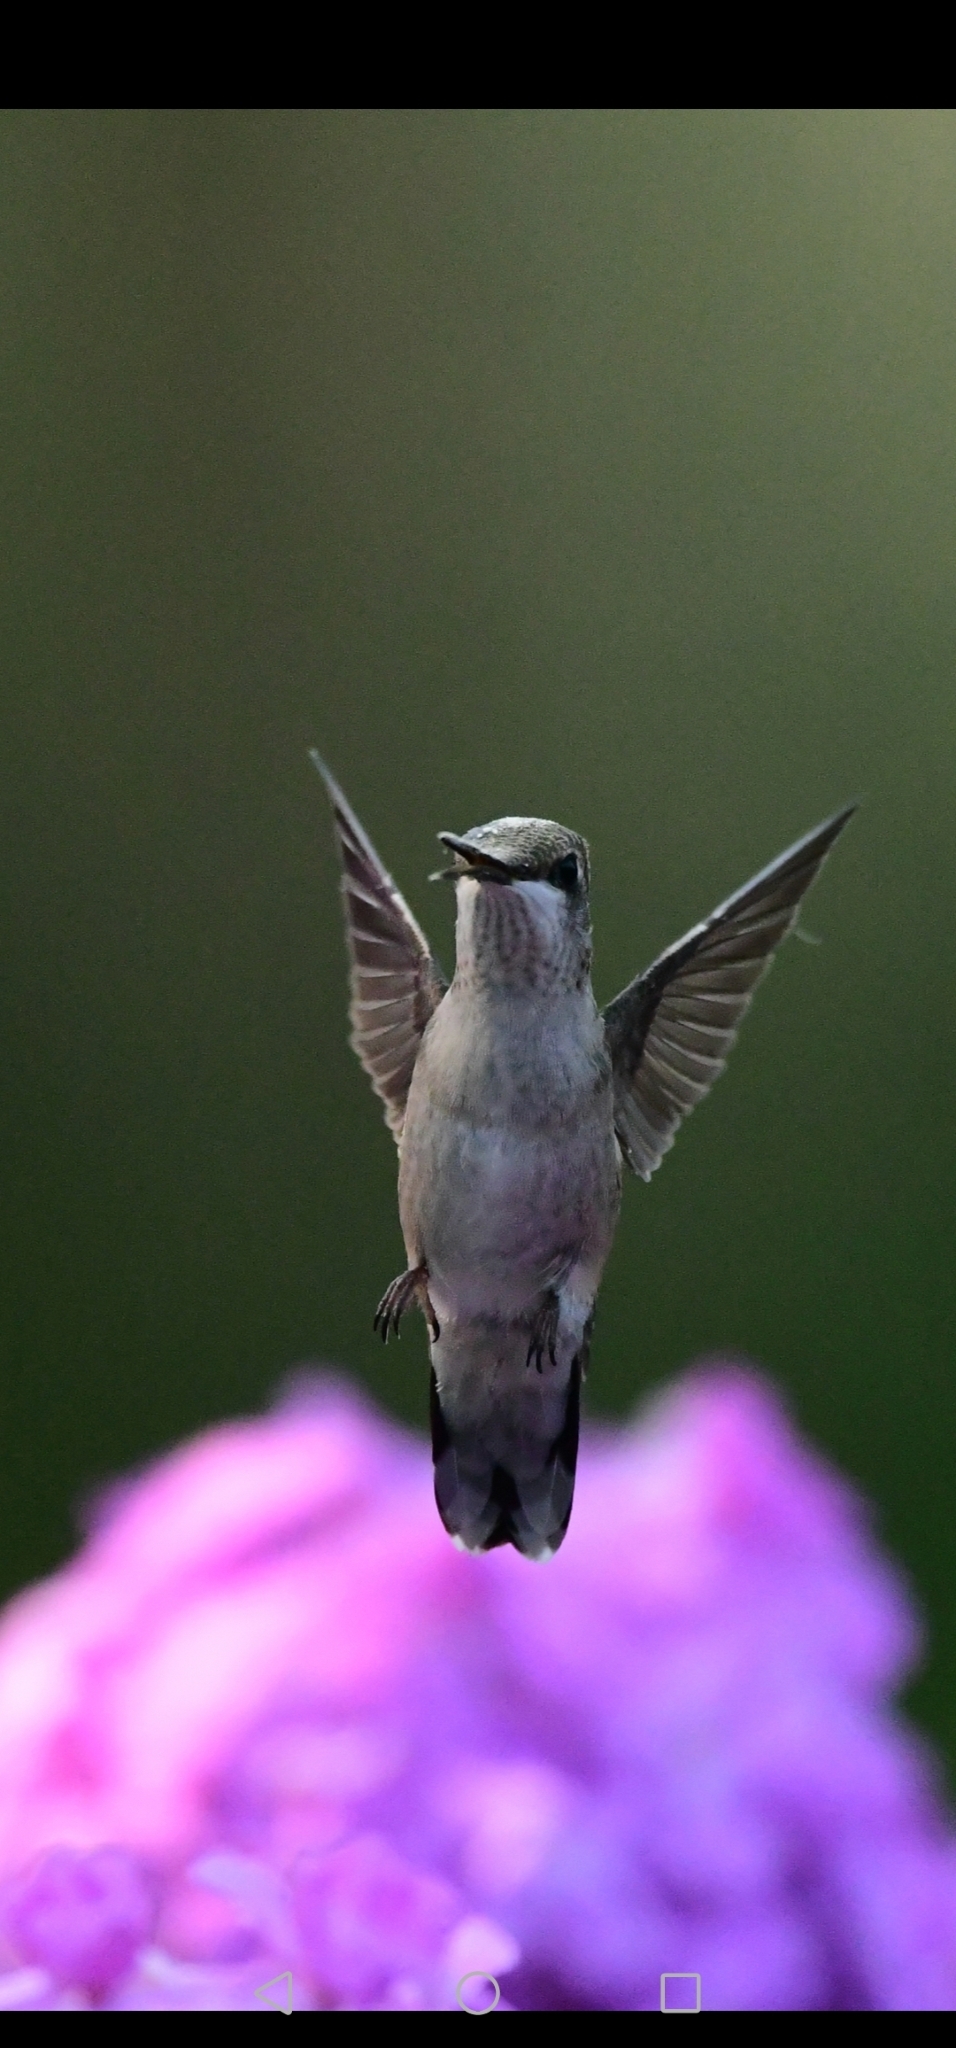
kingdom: Animalia
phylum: Chordata
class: Aves
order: Apodiformes
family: Trochilidae
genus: Archilochus
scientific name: Archilochus colubris
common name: Ruby-throated hummingbird
